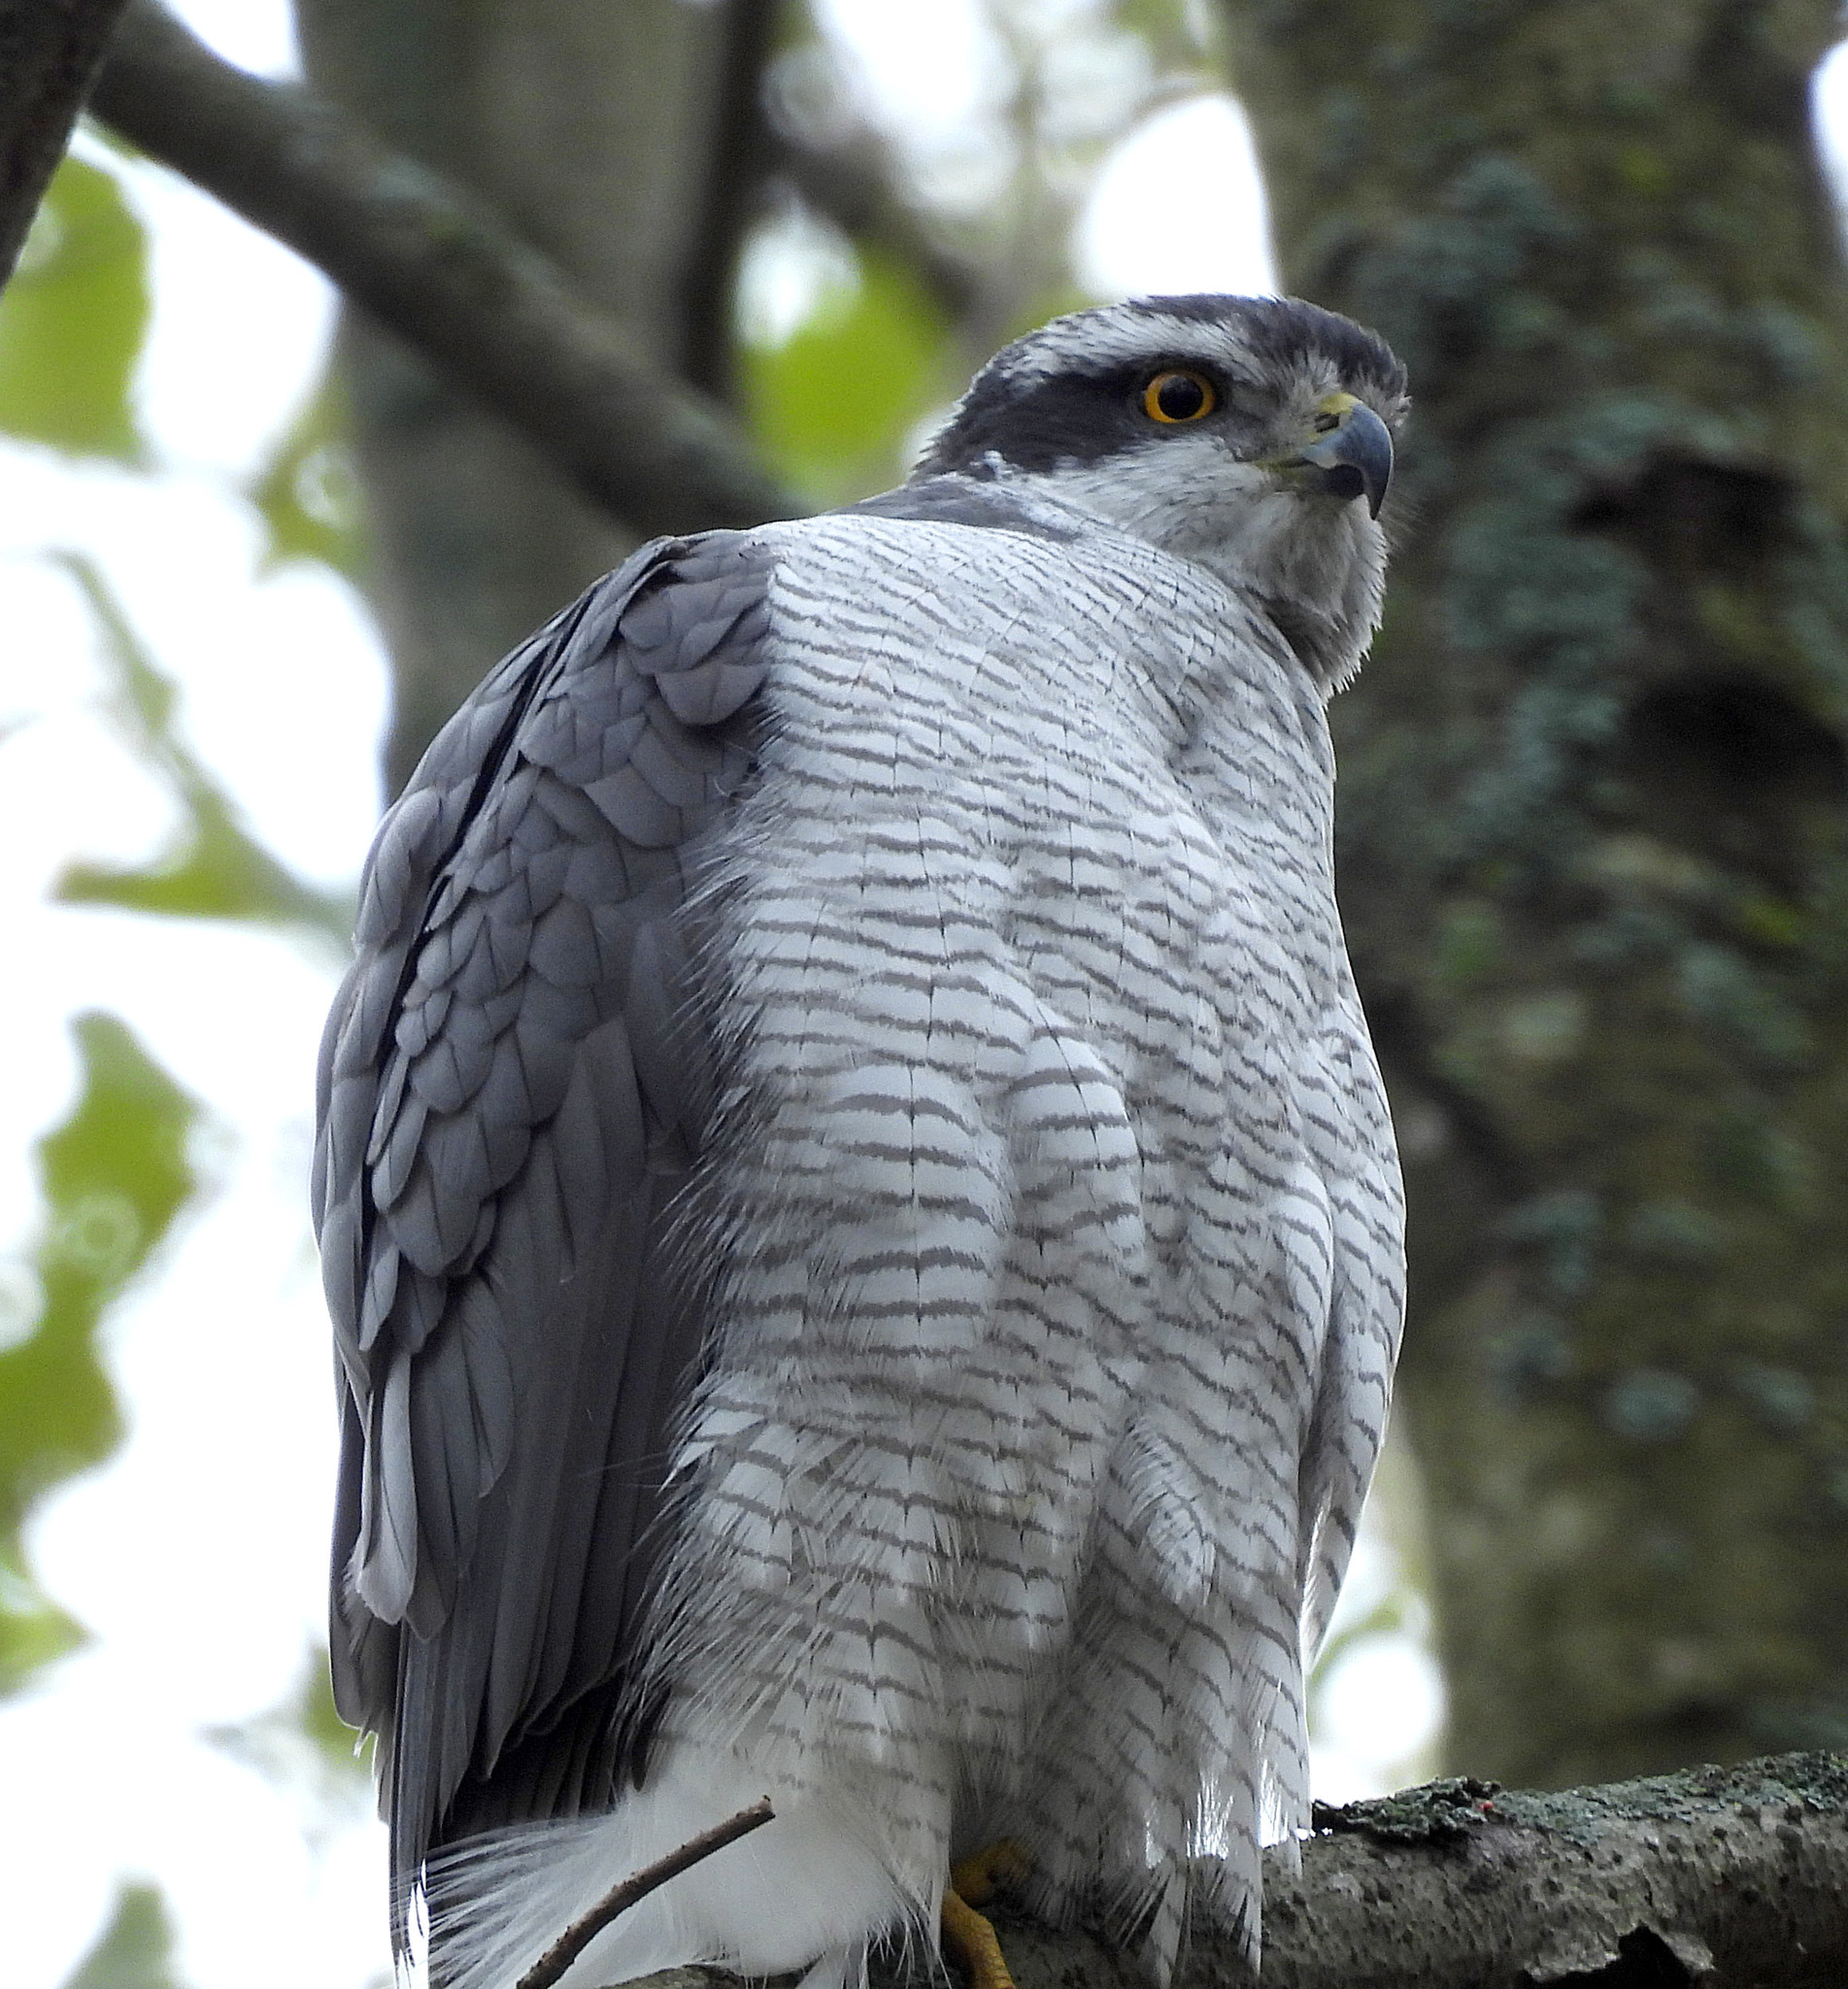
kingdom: Animalia
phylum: Chordata
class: Aves
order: Accipitriformes
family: Accipitridae
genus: Accipiter
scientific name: Accipiter gentilis
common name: Northern goshawk
